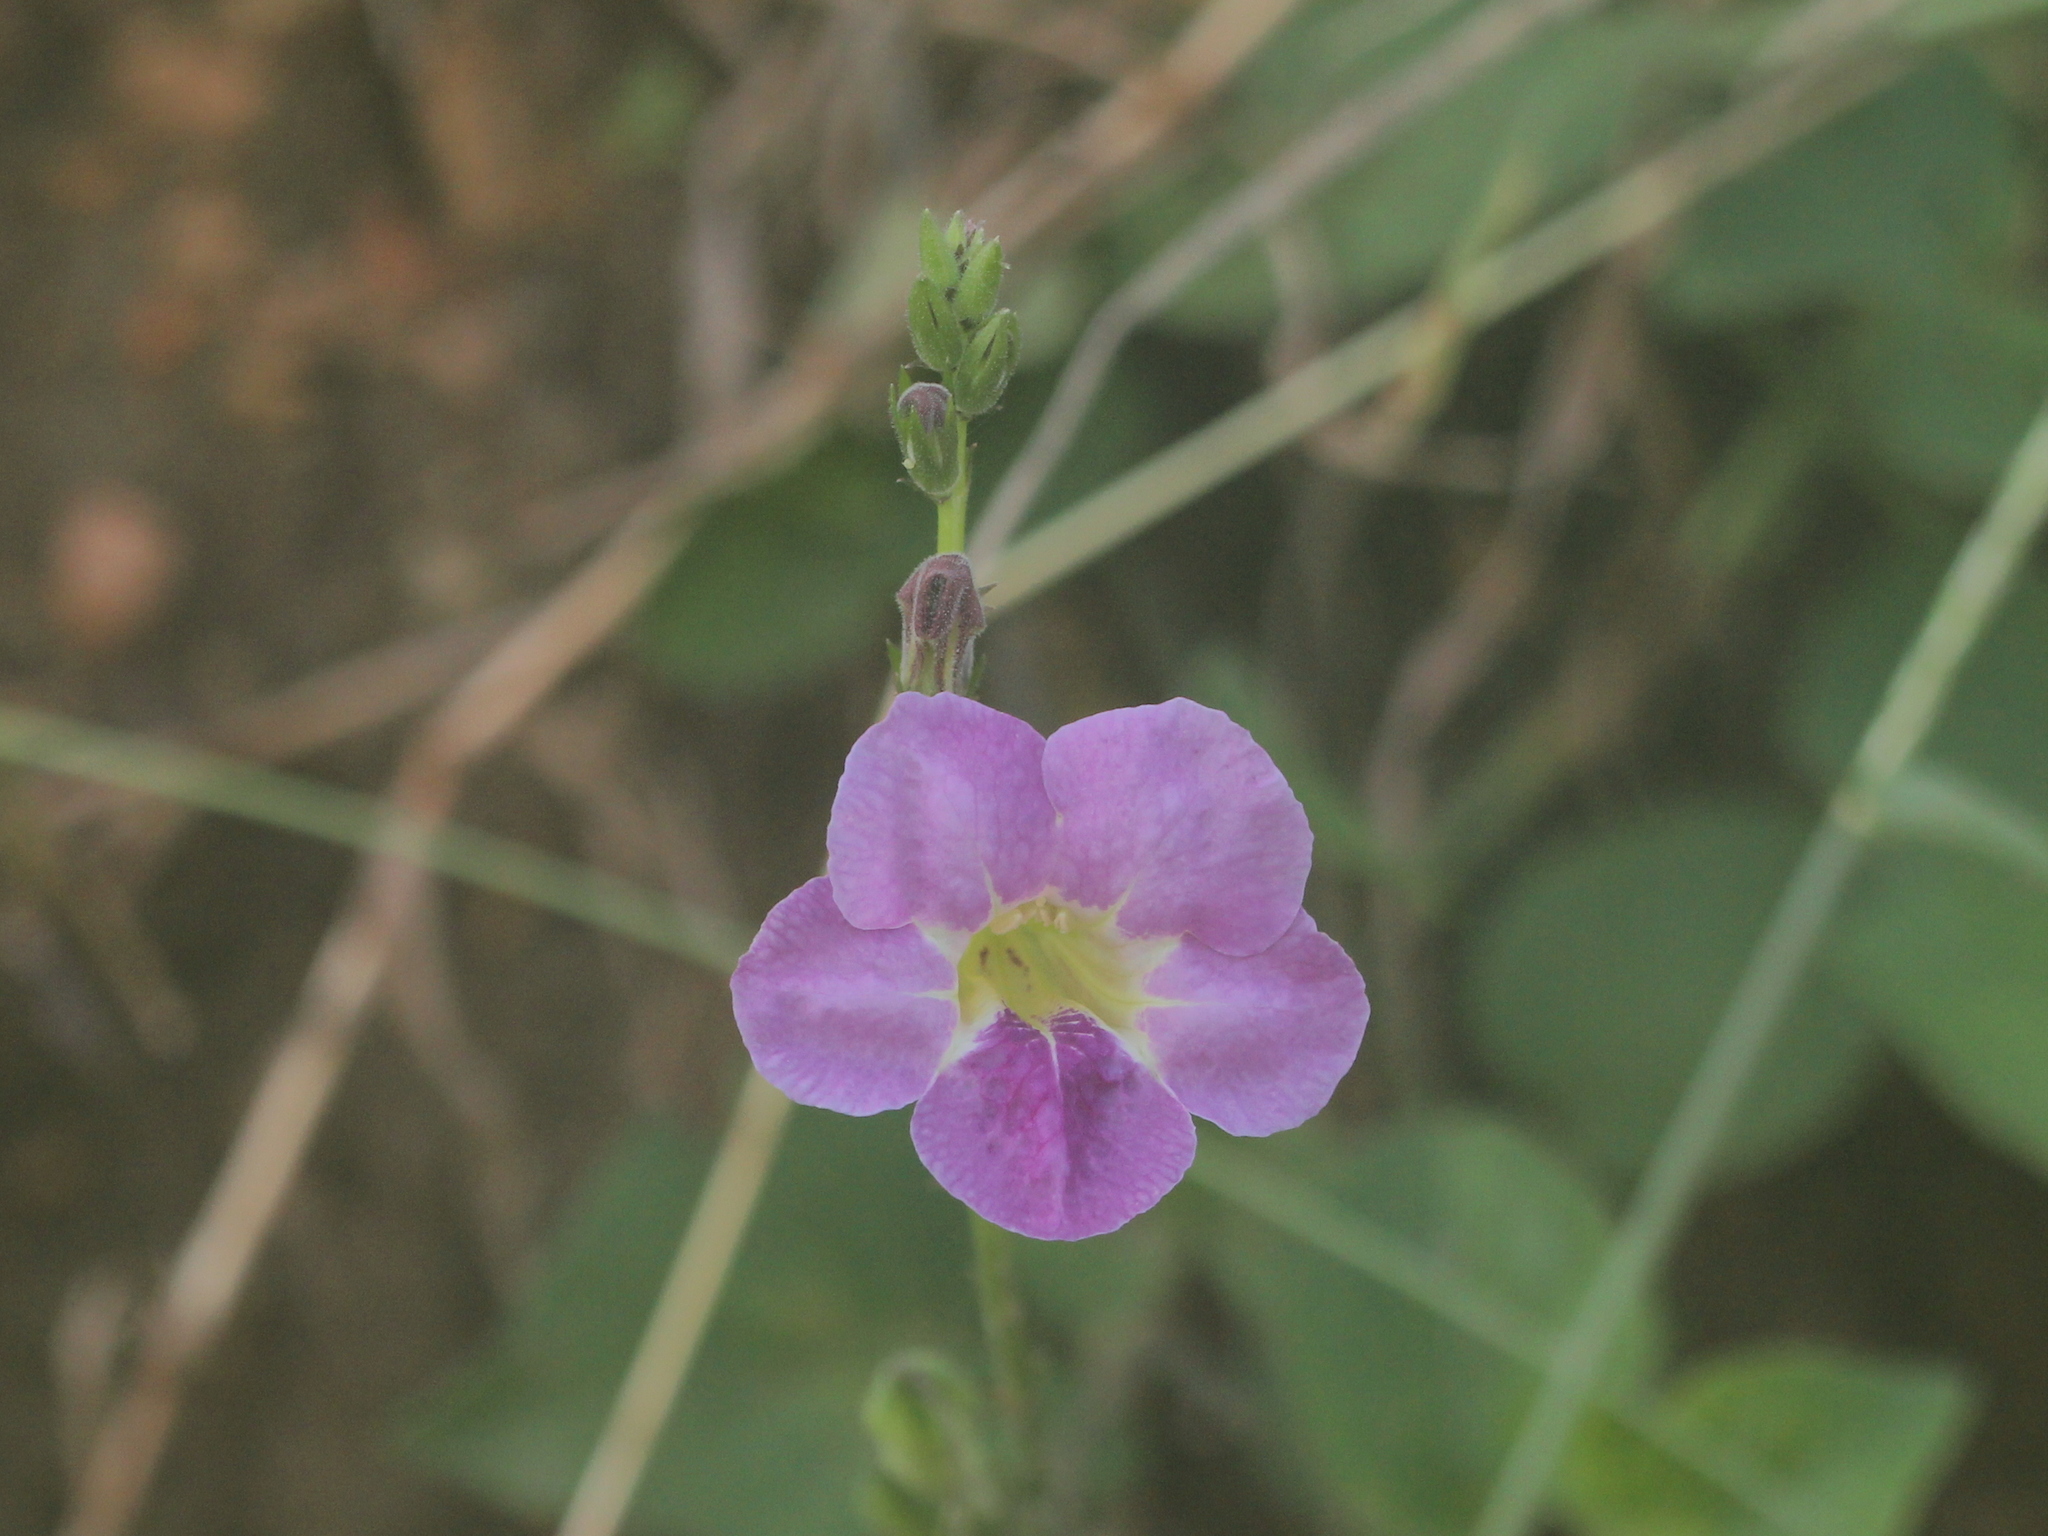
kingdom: Plantae
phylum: Tracheophyta
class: Magnoliopsida
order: Lamiales
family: Acanthaceae
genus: Asystasia
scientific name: Asystasia gangetica
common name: Chinese violet
